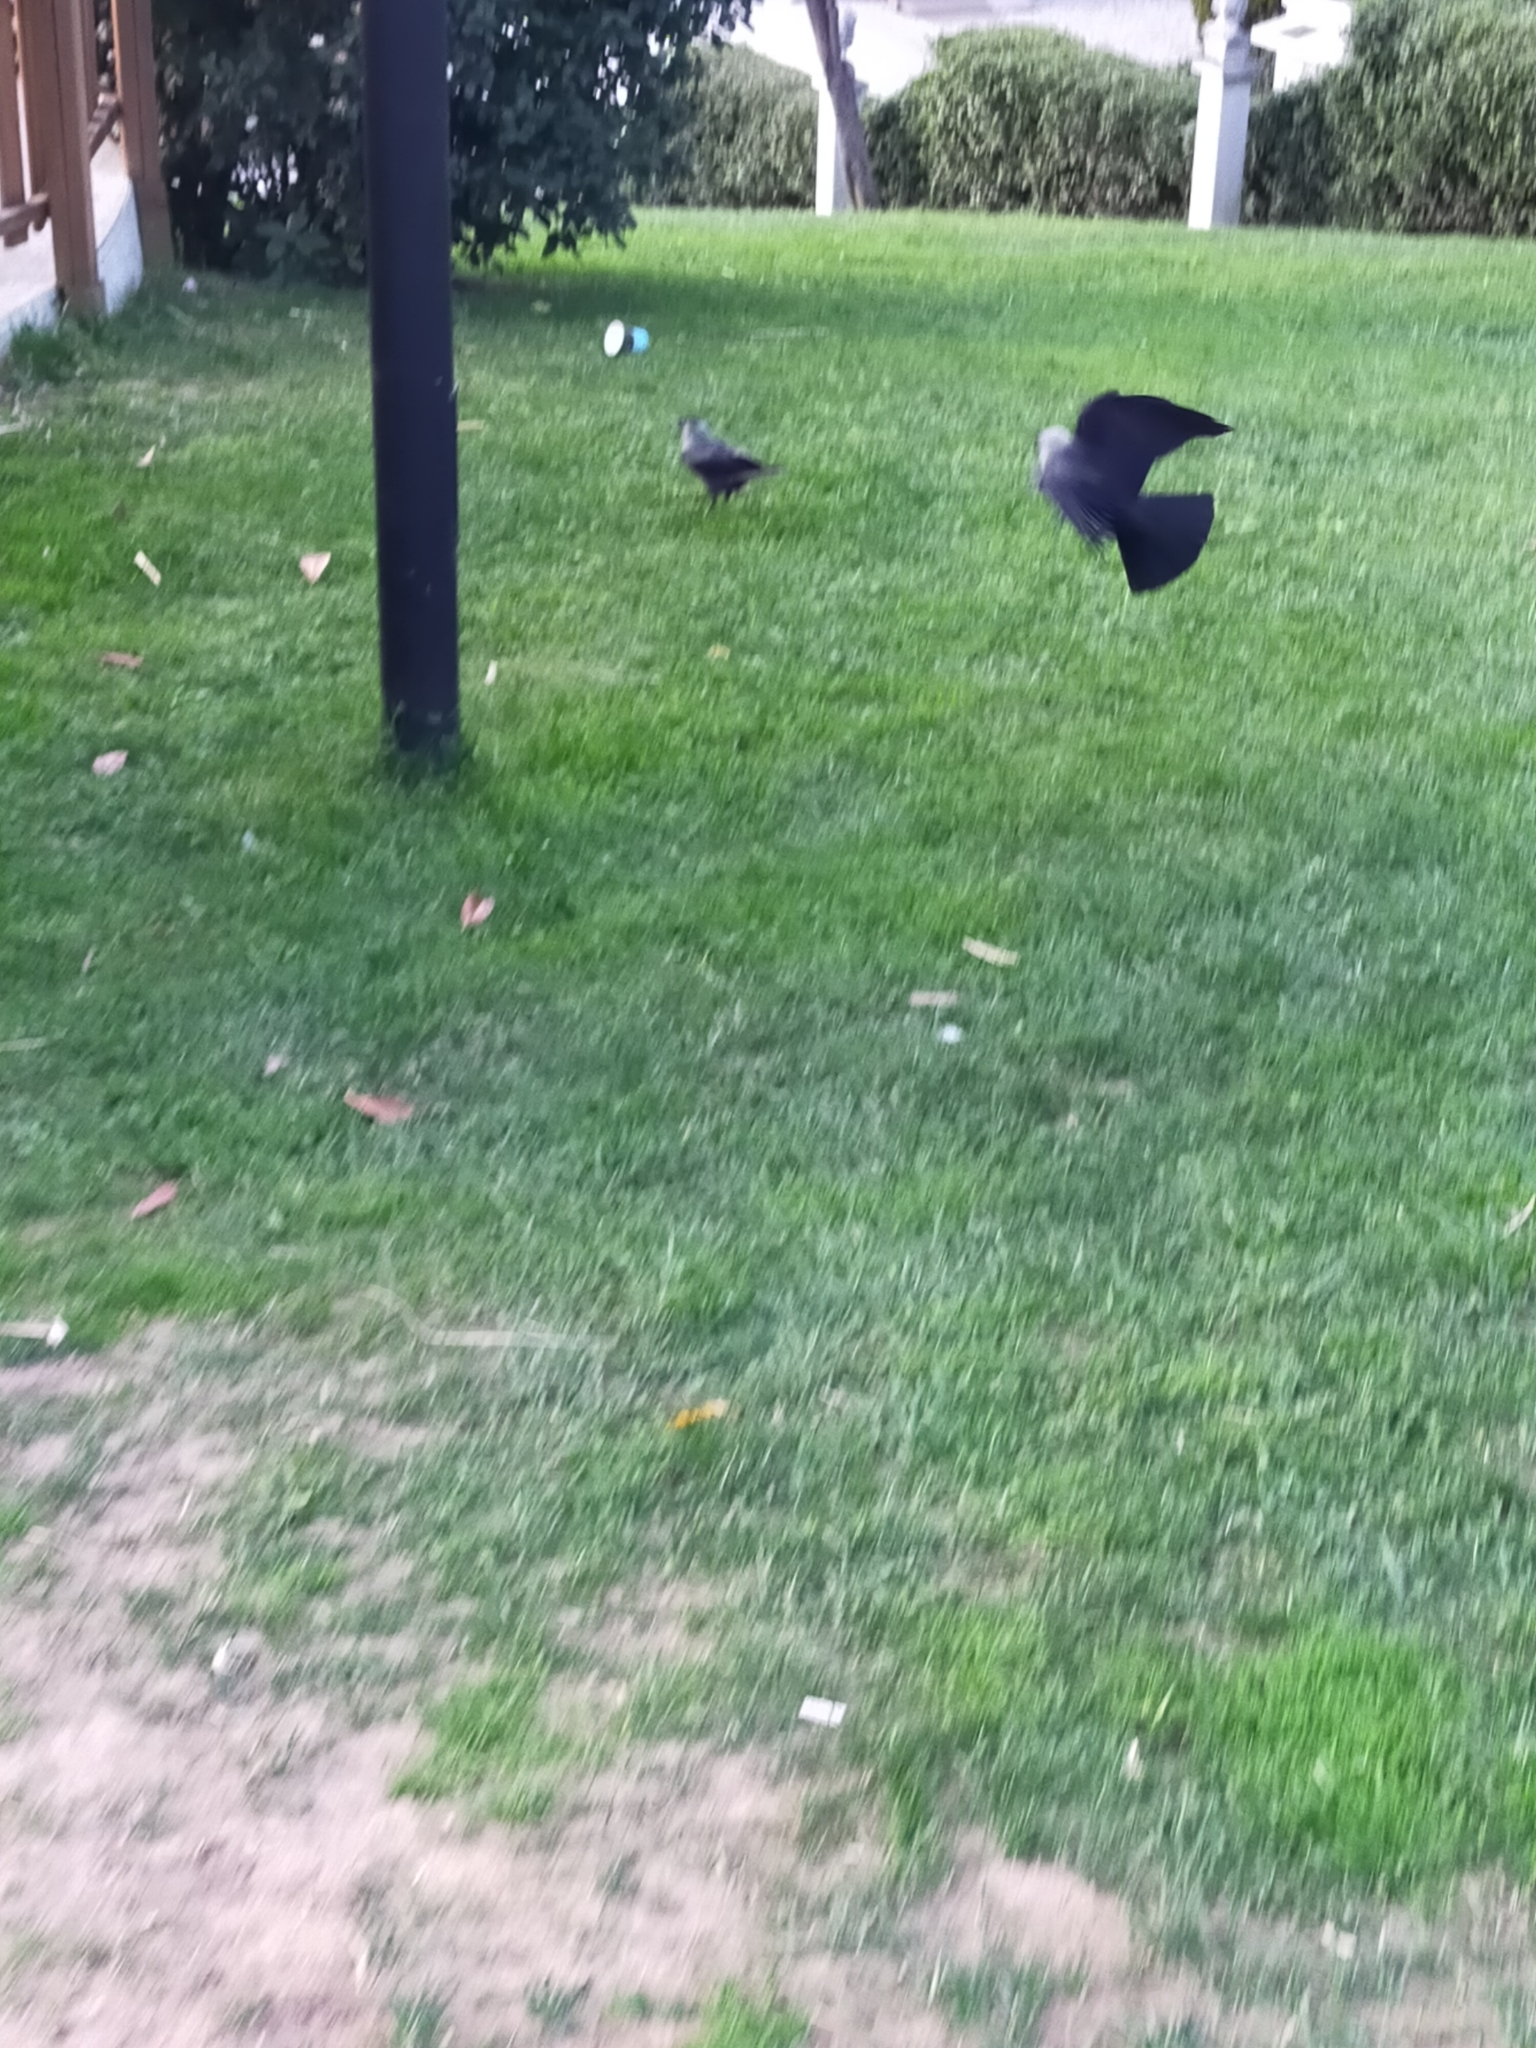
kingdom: Animalia
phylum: Chordata
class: Aves
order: Passeriformes
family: Corvidae
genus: Coloeus
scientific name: Coloeus monedula
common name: Western jackdaw
